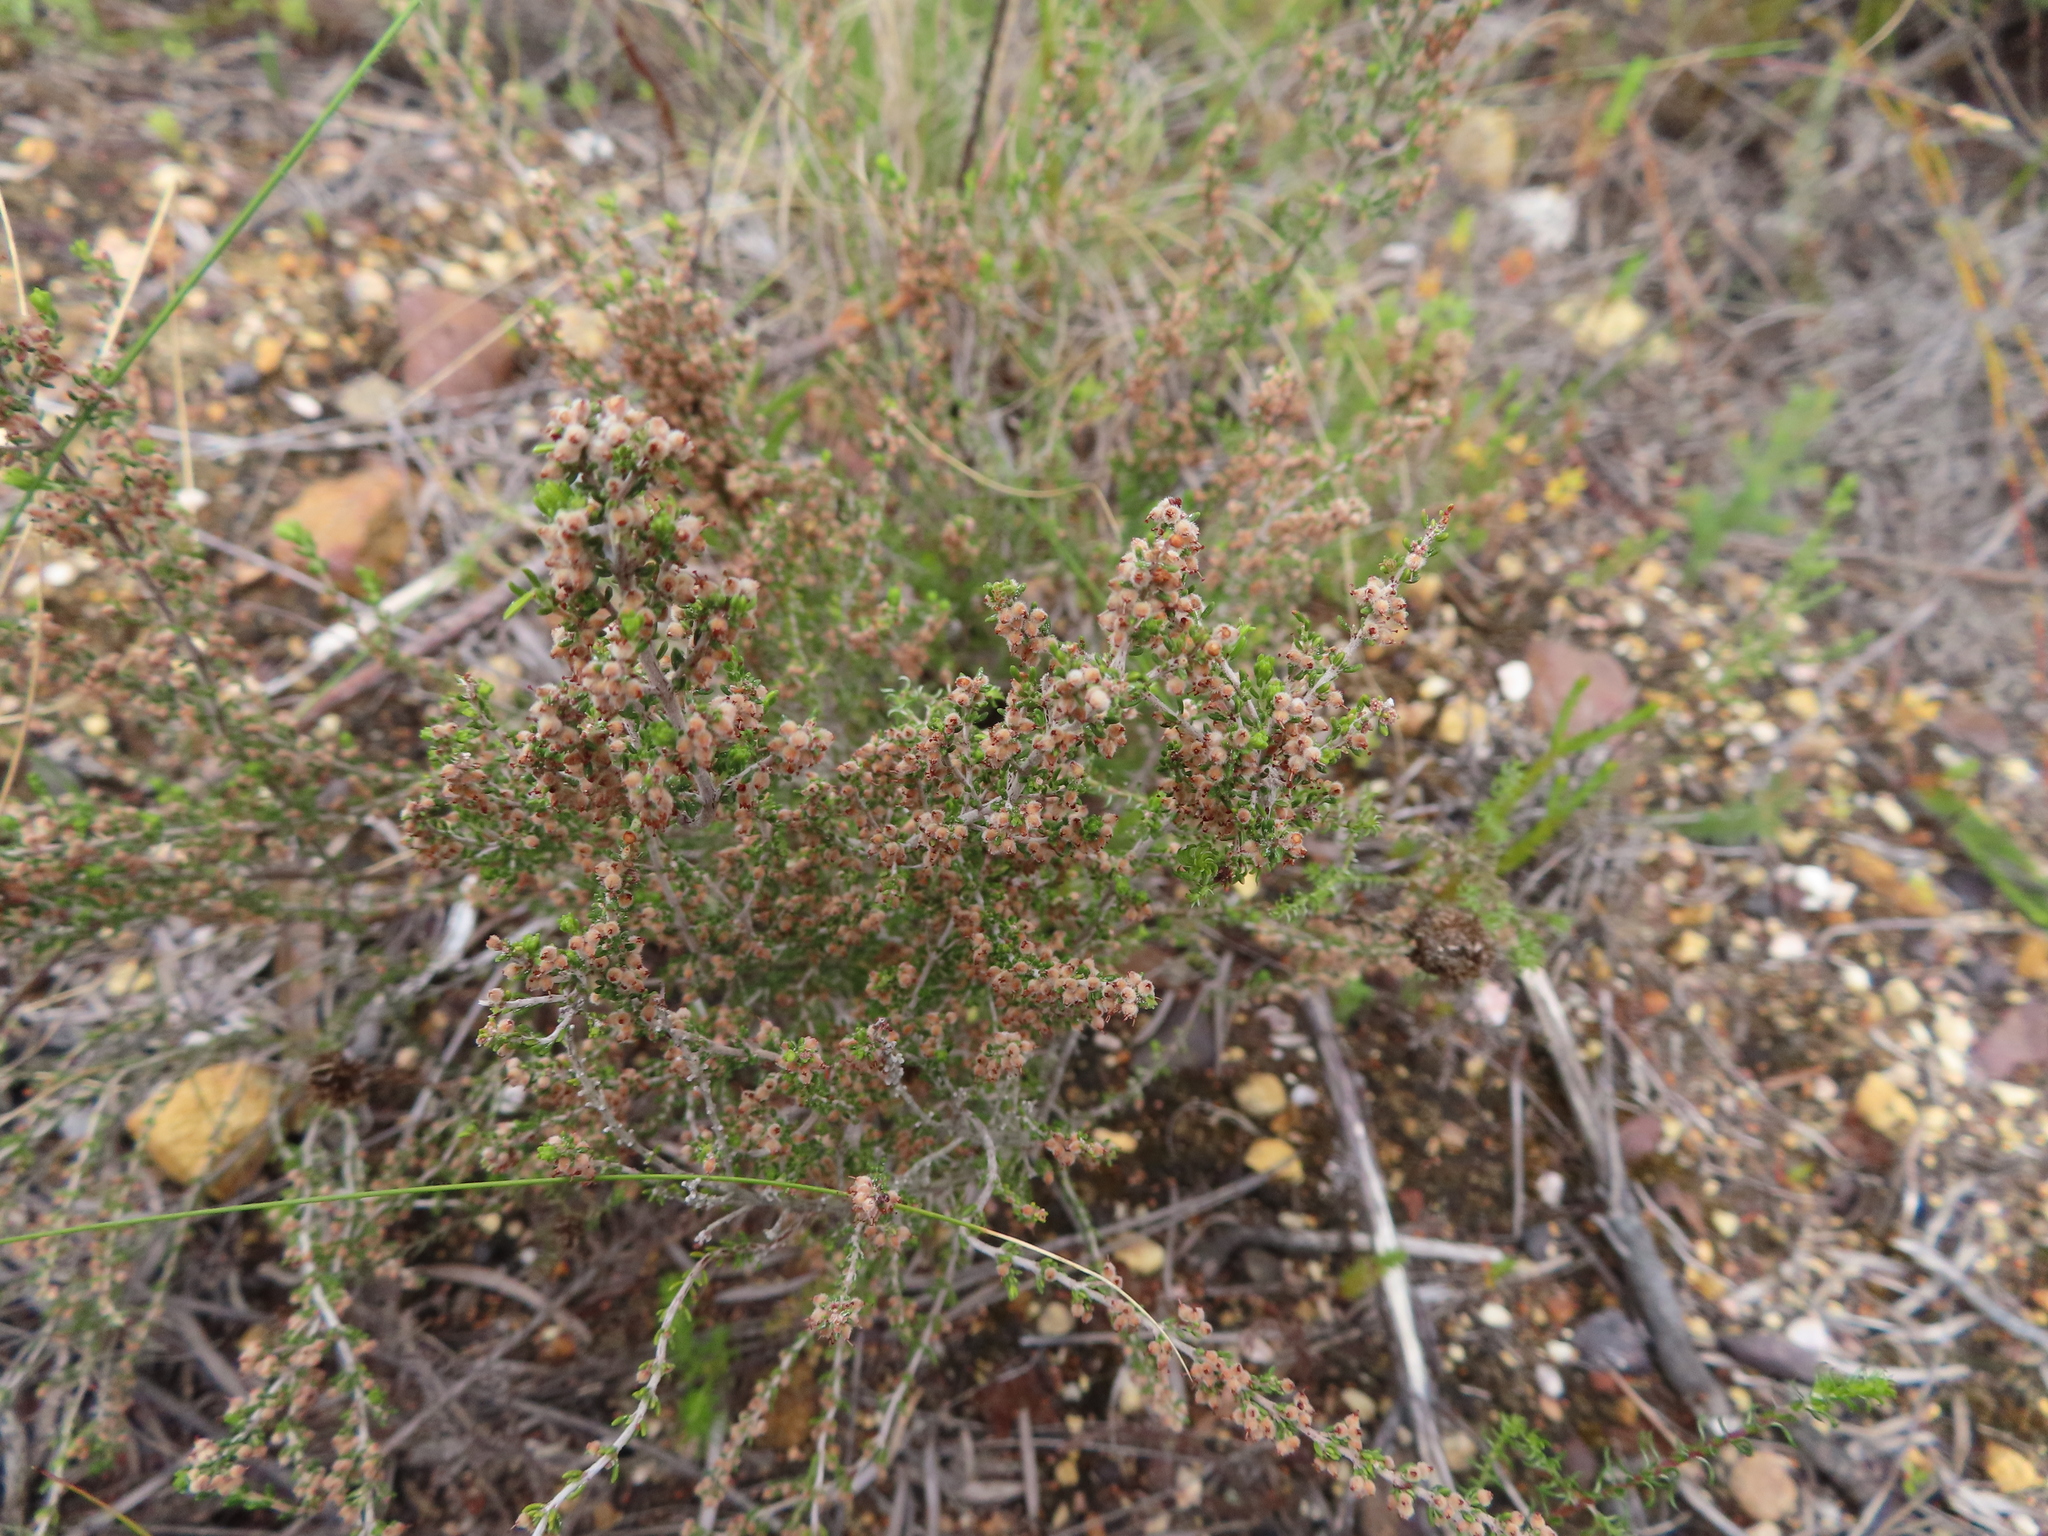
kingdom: Plantae
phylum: Tracheophyta
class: Magnoliopsida
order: Ericales
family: Ericaceae
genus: Erica
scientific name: Erica puberuliflora
